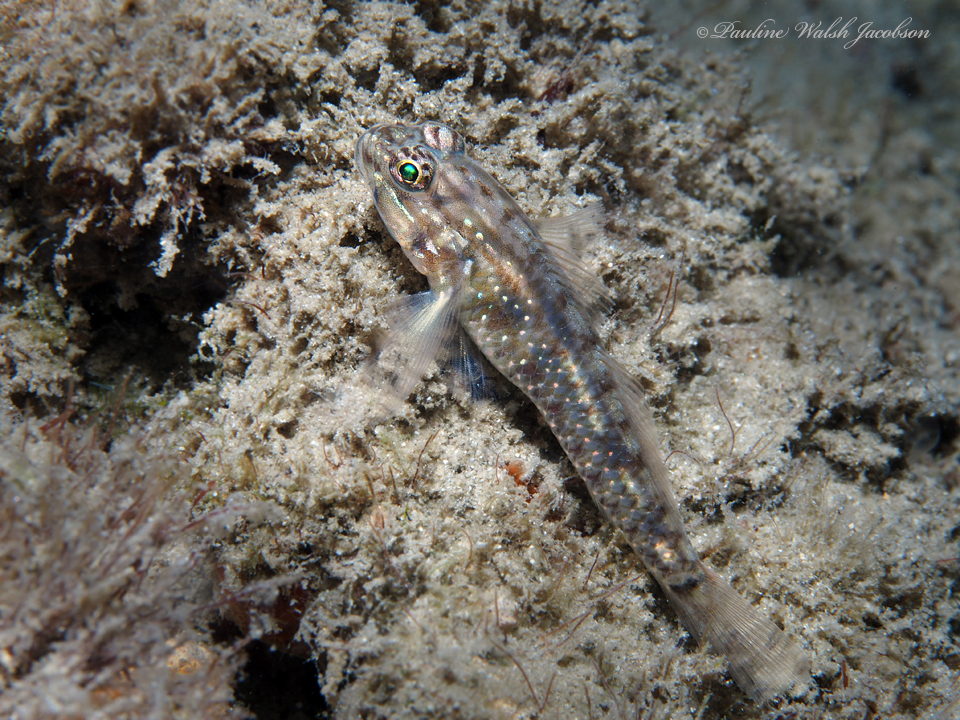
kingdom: Animalia
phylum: Chordata
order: Perciformes
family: Gobiidae
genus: Coryphopterus
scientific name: Coryphopterus dicrus
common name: Colon goby
